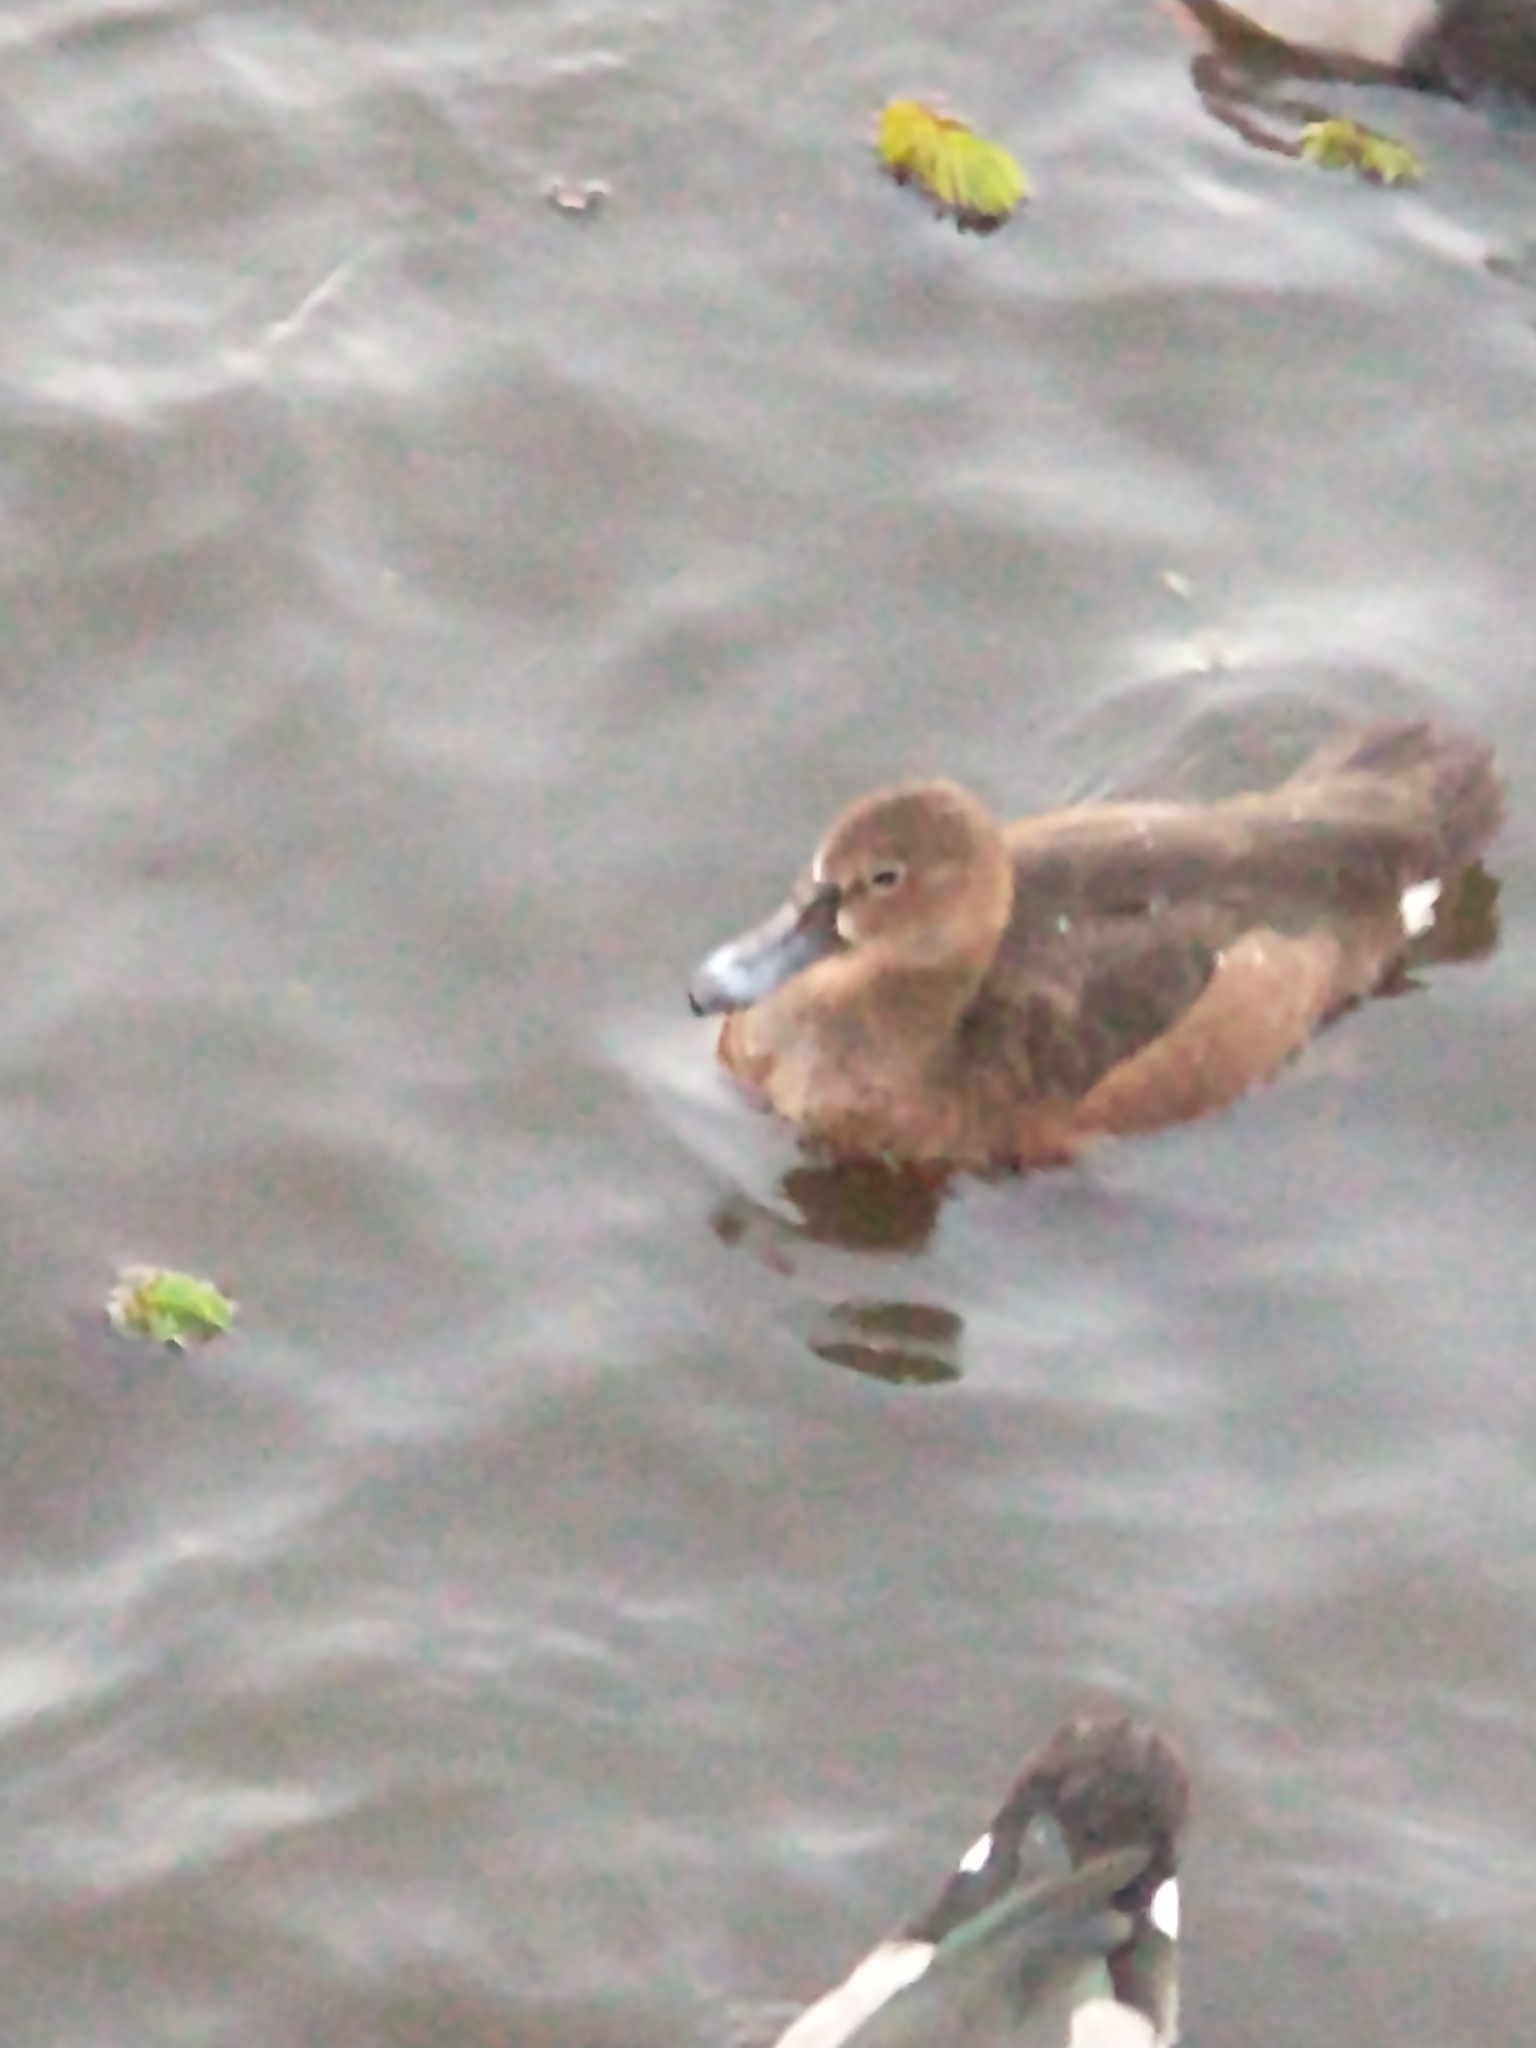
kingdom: Animalia
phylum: Chordata
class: Aves
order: Anseriformes
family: Anatidae
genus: Netta
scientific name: Netta peposaca
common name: Rosy-billed pochard
